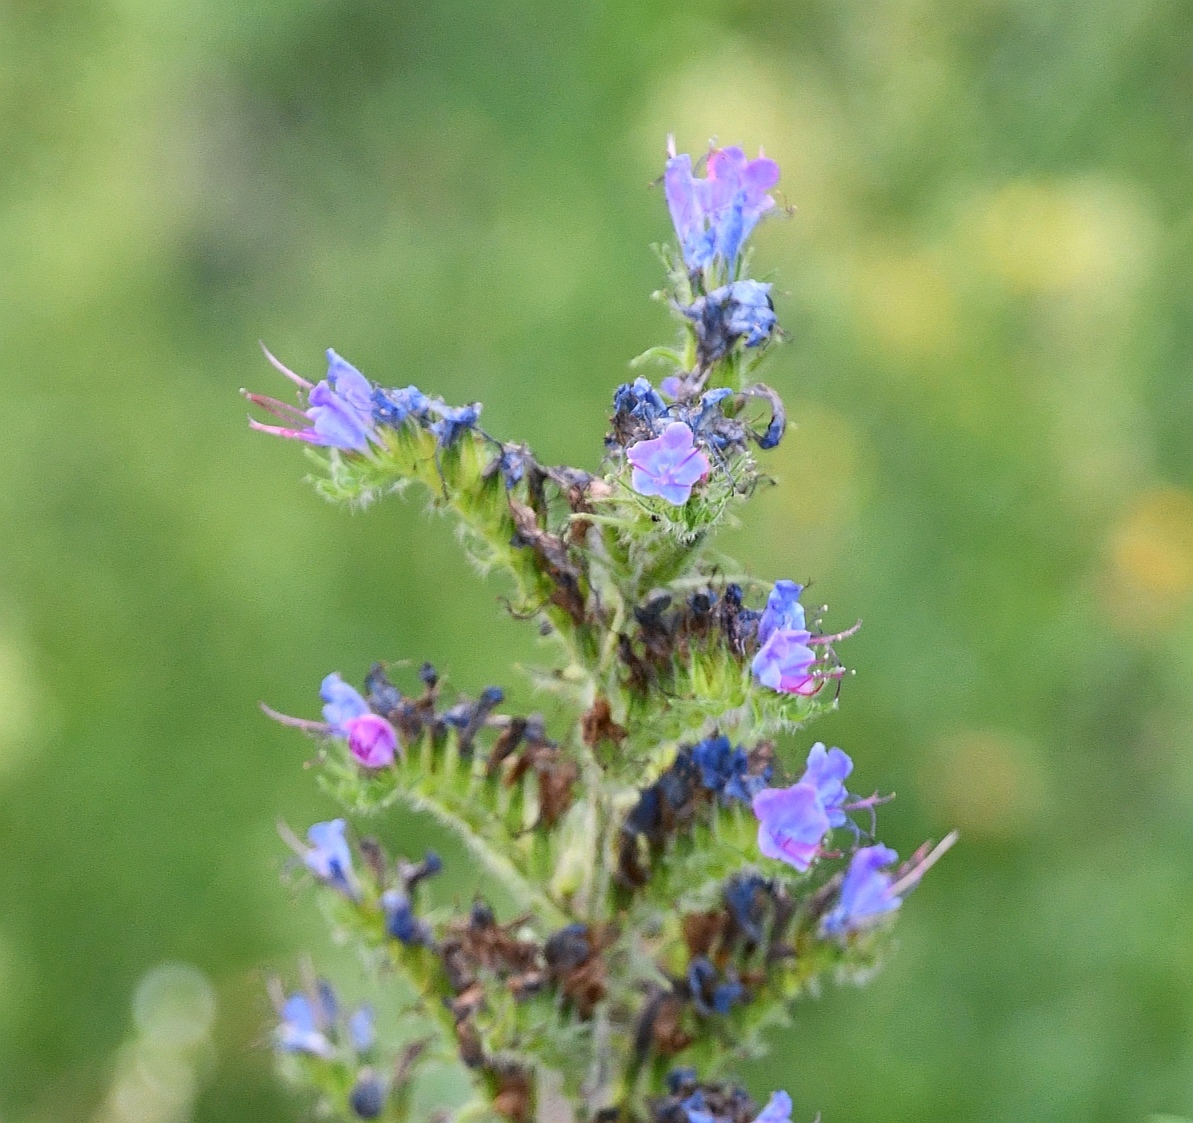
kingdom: Plantae
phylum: Tracheophyta
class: Magnoliopsida
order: Boraginales
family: Boraginaceae
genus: Echium
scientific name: Echium vulgare
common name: Common viper's bugloss
